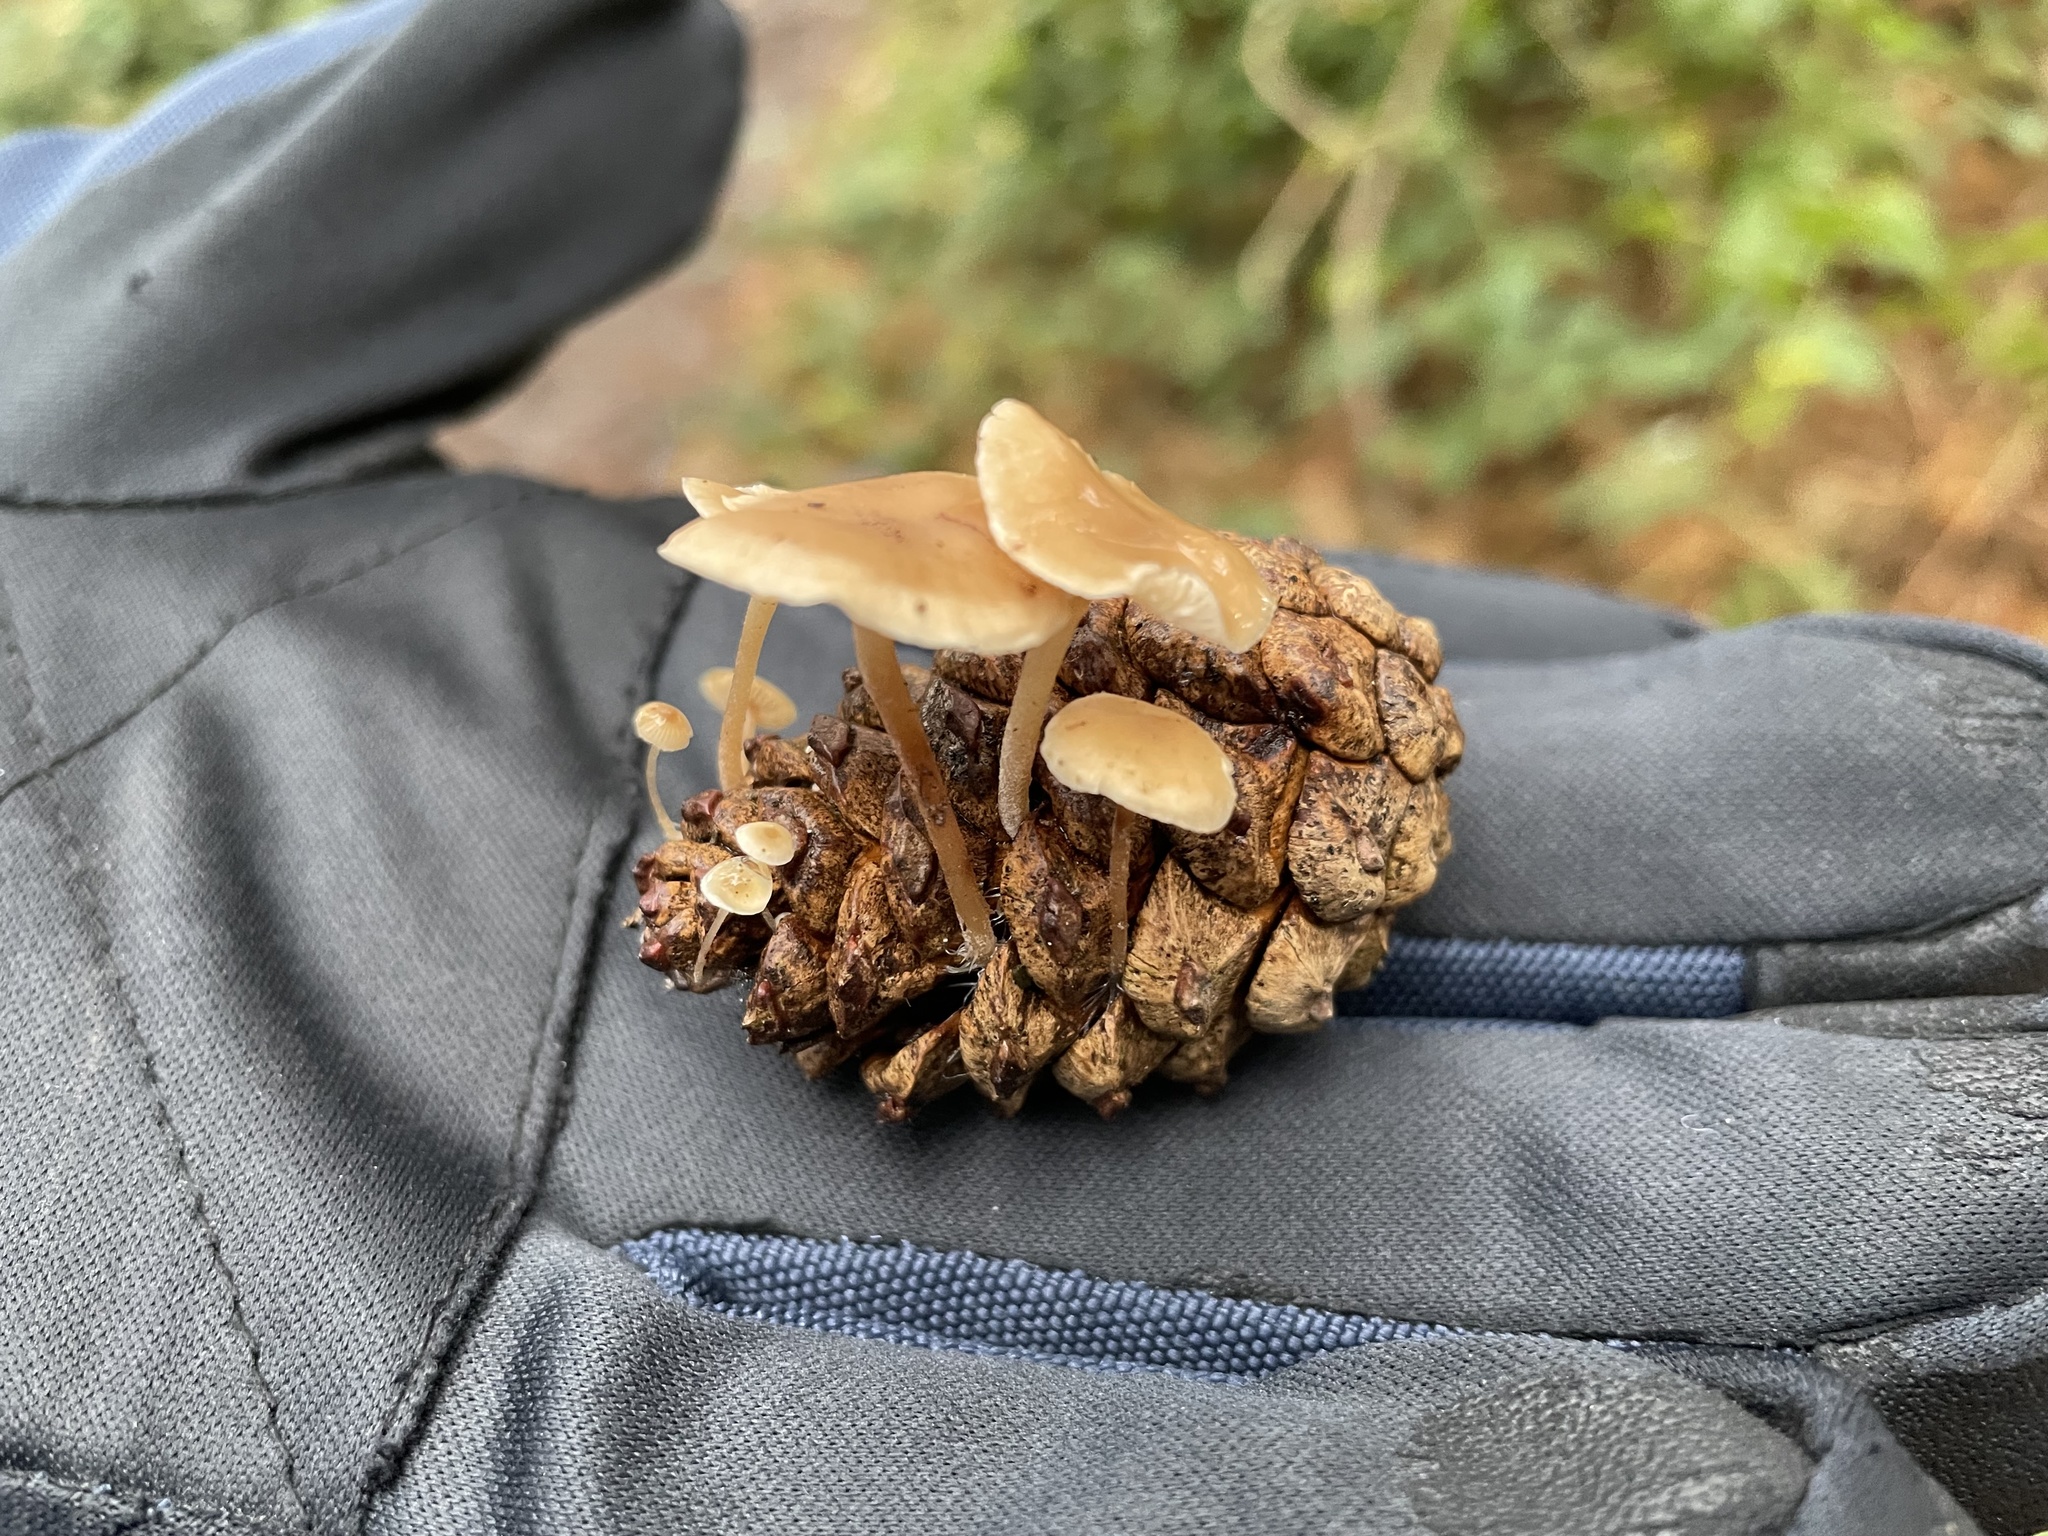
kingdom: Fungi
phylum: Basidiomycota
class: Agaricomycetes
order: Agaricales
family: Marasmiaceae
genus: Baeospora
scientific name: Baeospora myosura
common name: Conifercone cap
